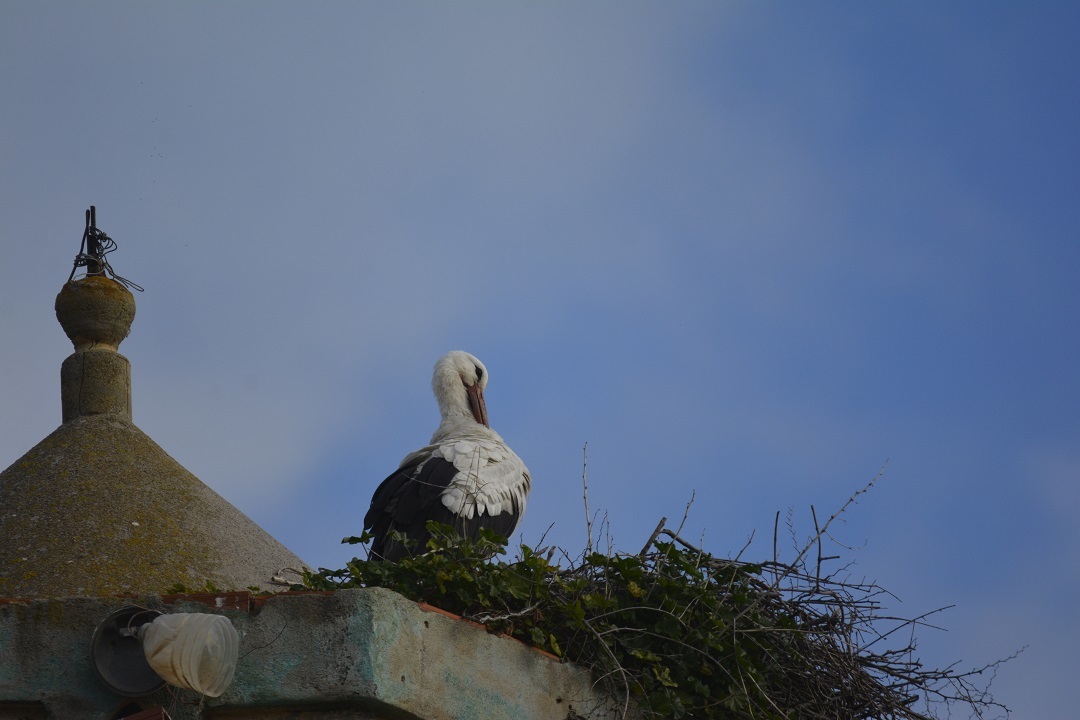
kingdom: Animalia
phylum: Chordata
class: Aves
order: Ciconiiformes
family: Ciconiidae
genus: Ciconia
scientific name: Ciconia ciconia
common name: White stork
